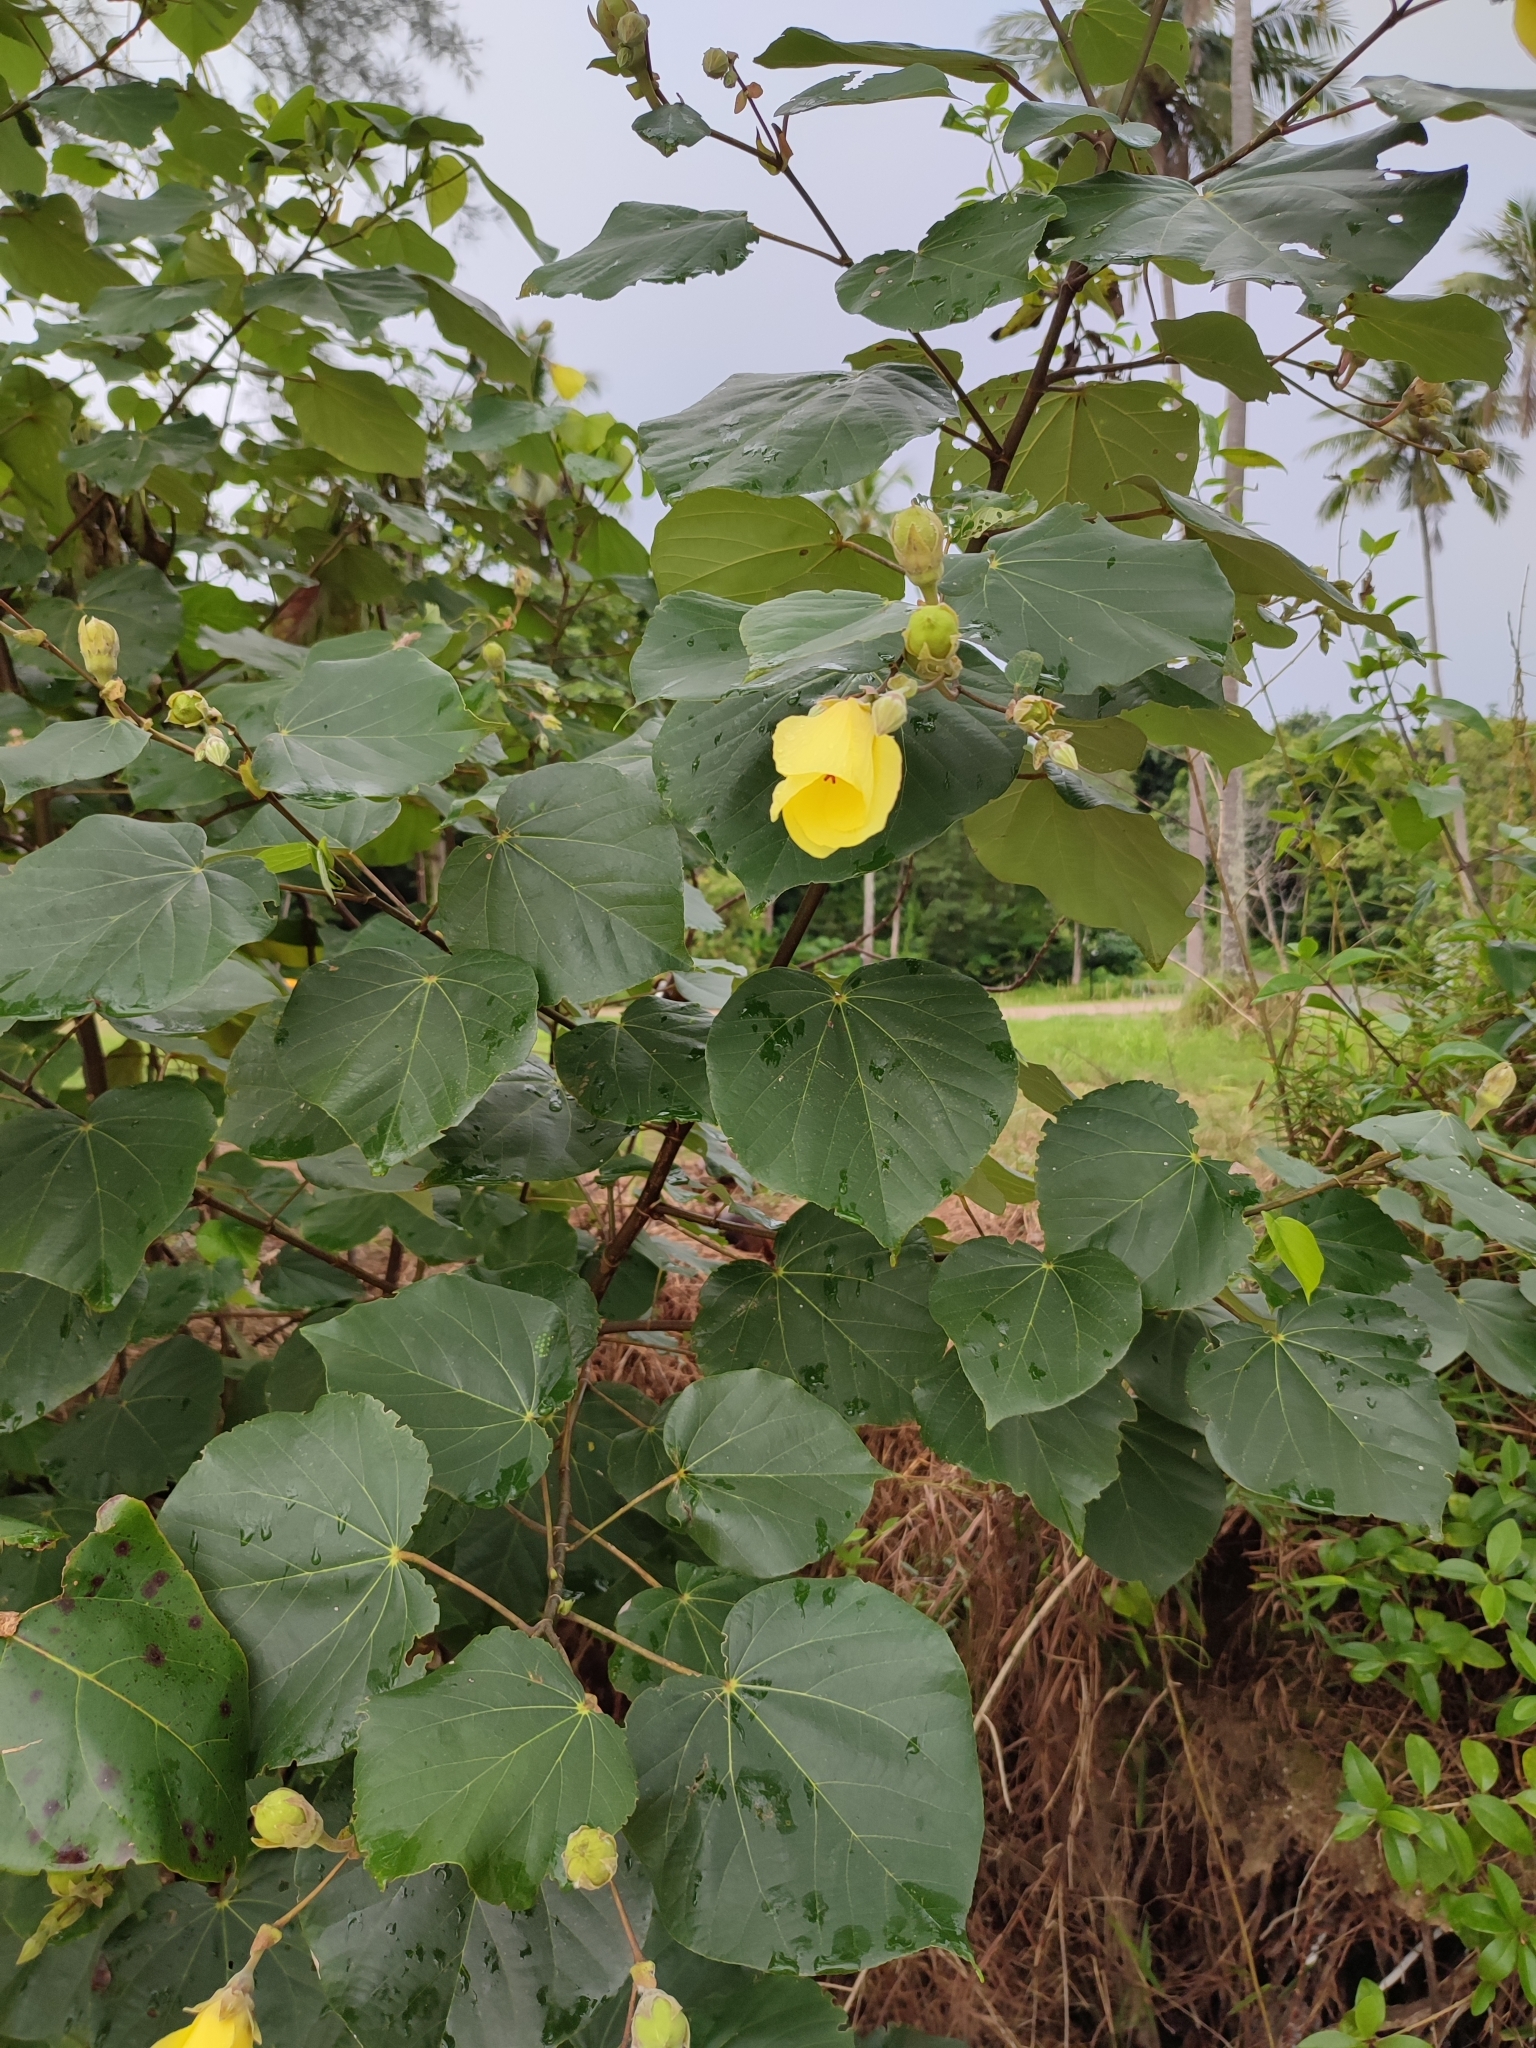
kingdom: Plantae
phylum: Tracheophyta
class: Magnoliopsida
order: Malvales
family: Malvaceae
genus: Talipariti
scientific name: Talipariti tiliaceum
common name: Sea hibiscus
